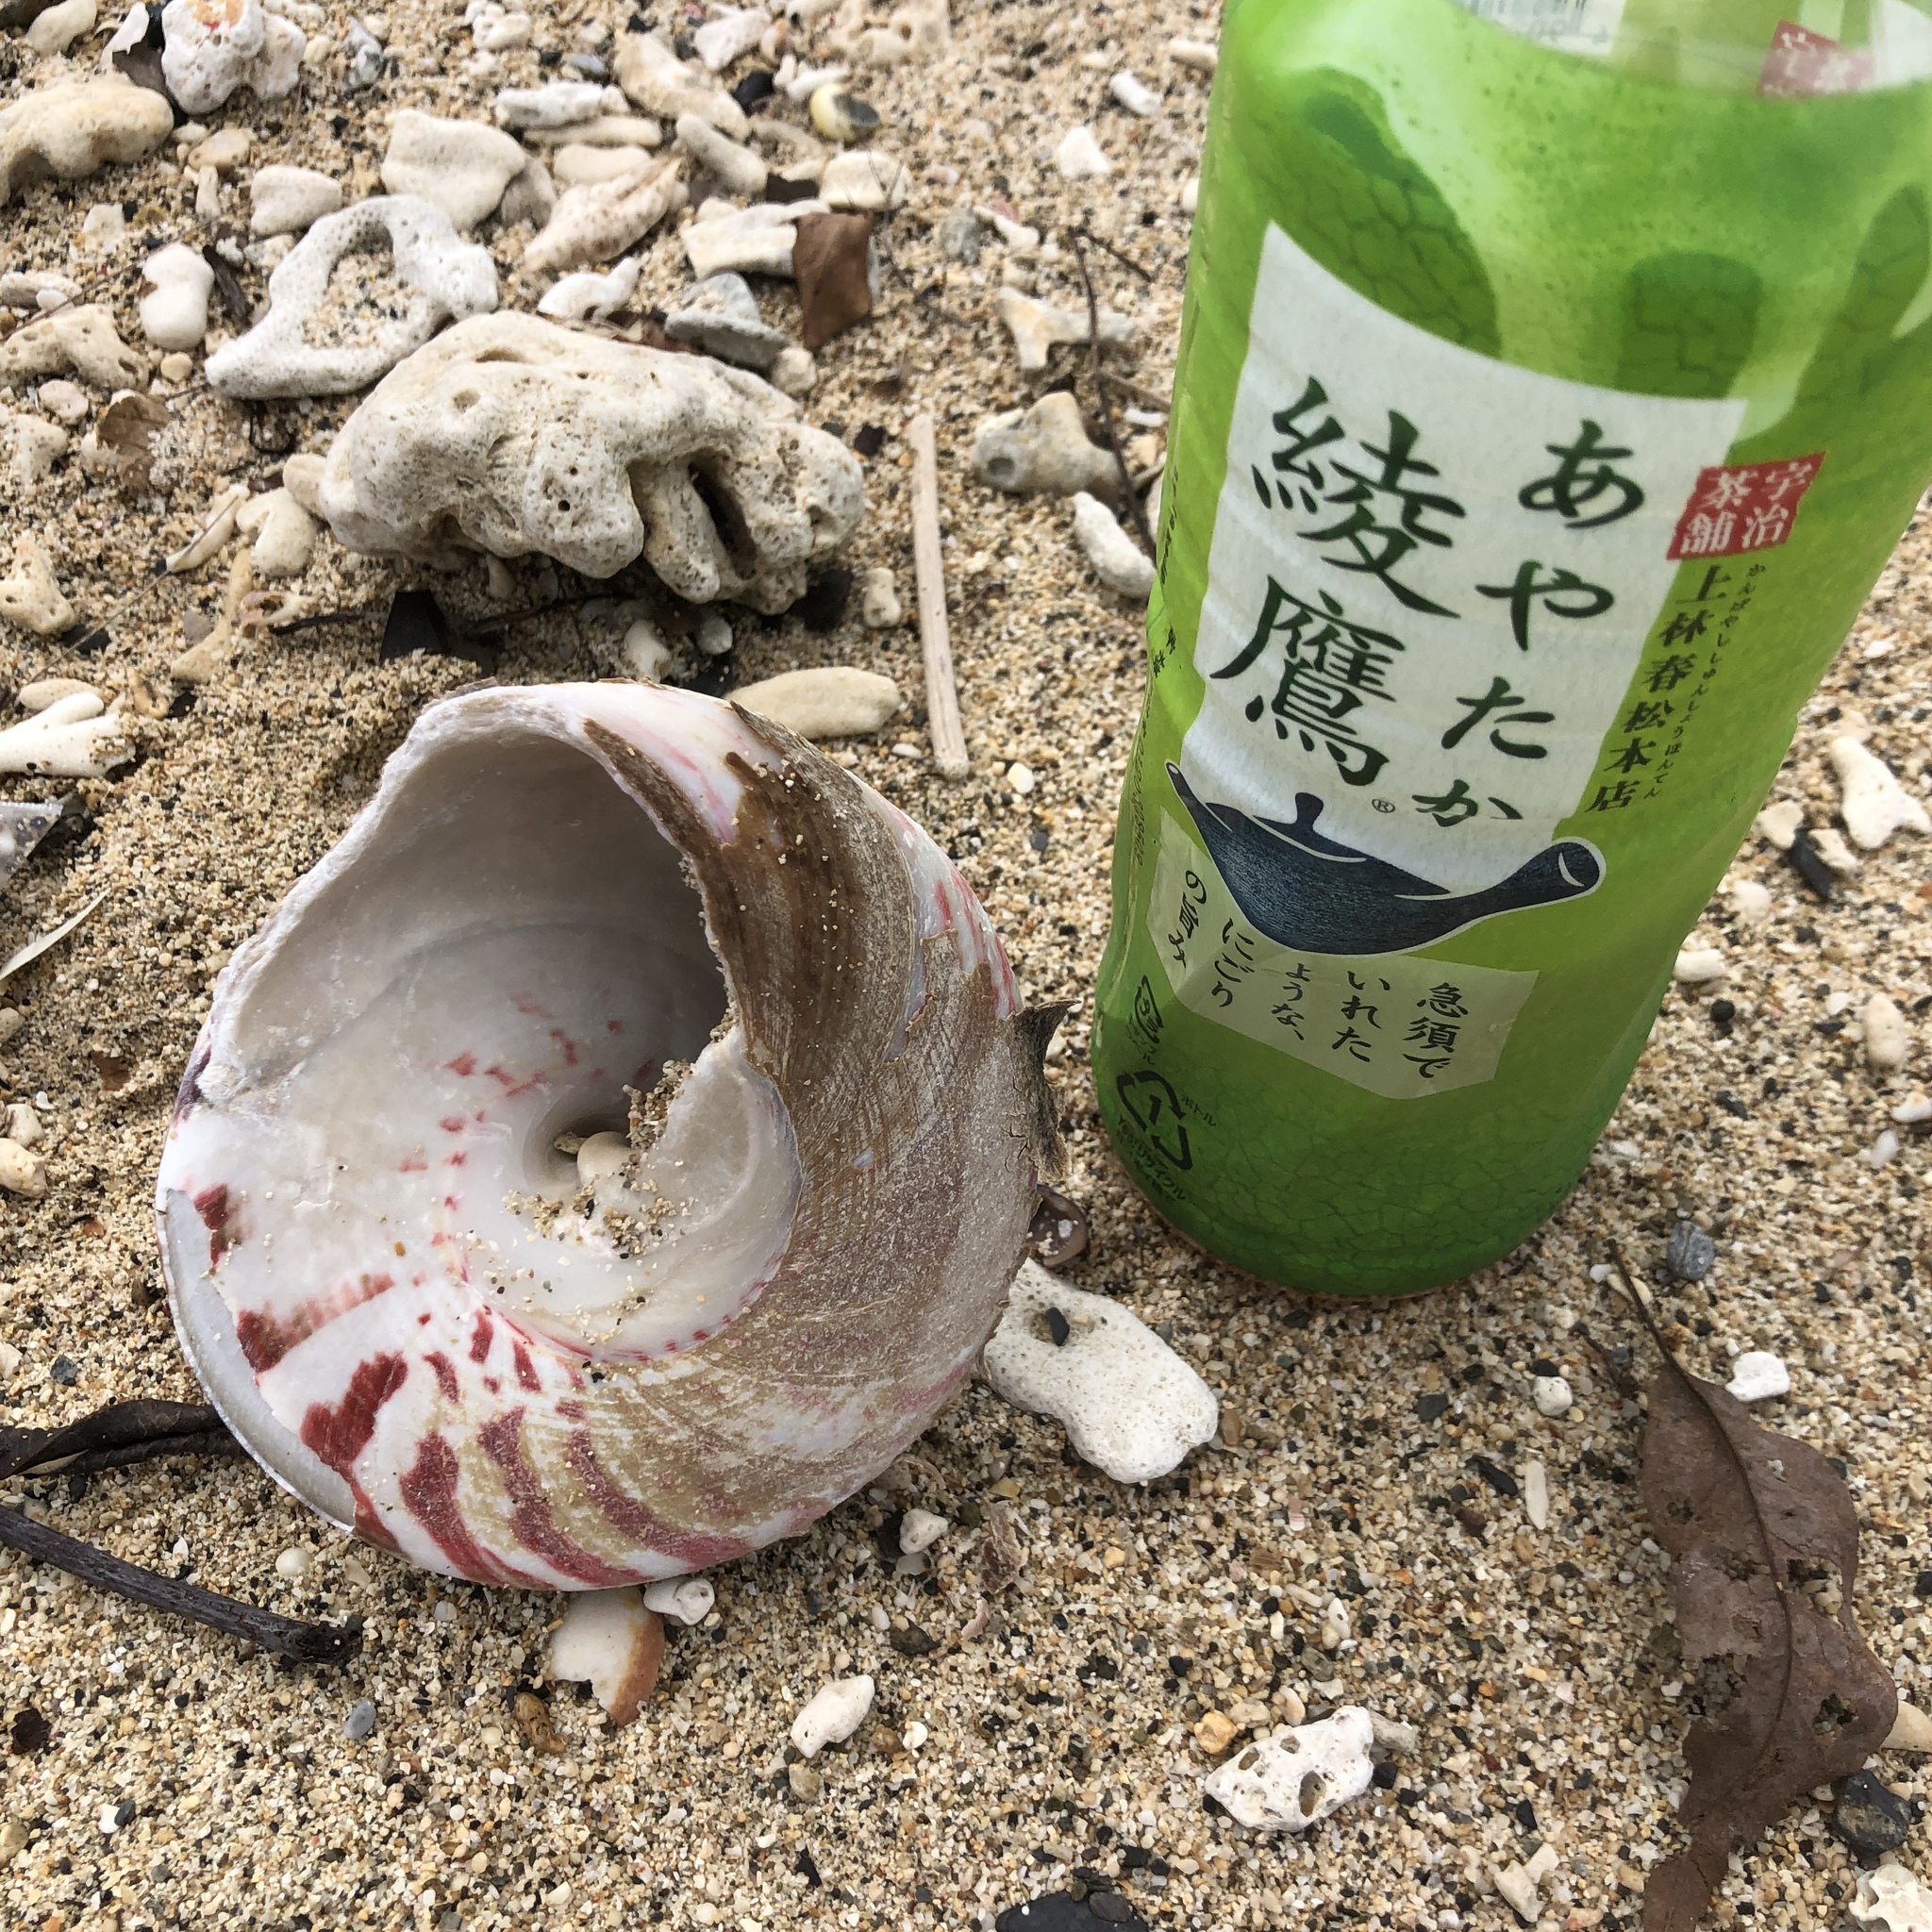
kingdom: Animalia
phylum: Mollusca
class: Gastropoda
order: Trochida
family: Tegulidae
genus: Rochia
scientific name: Rochia nilotica
